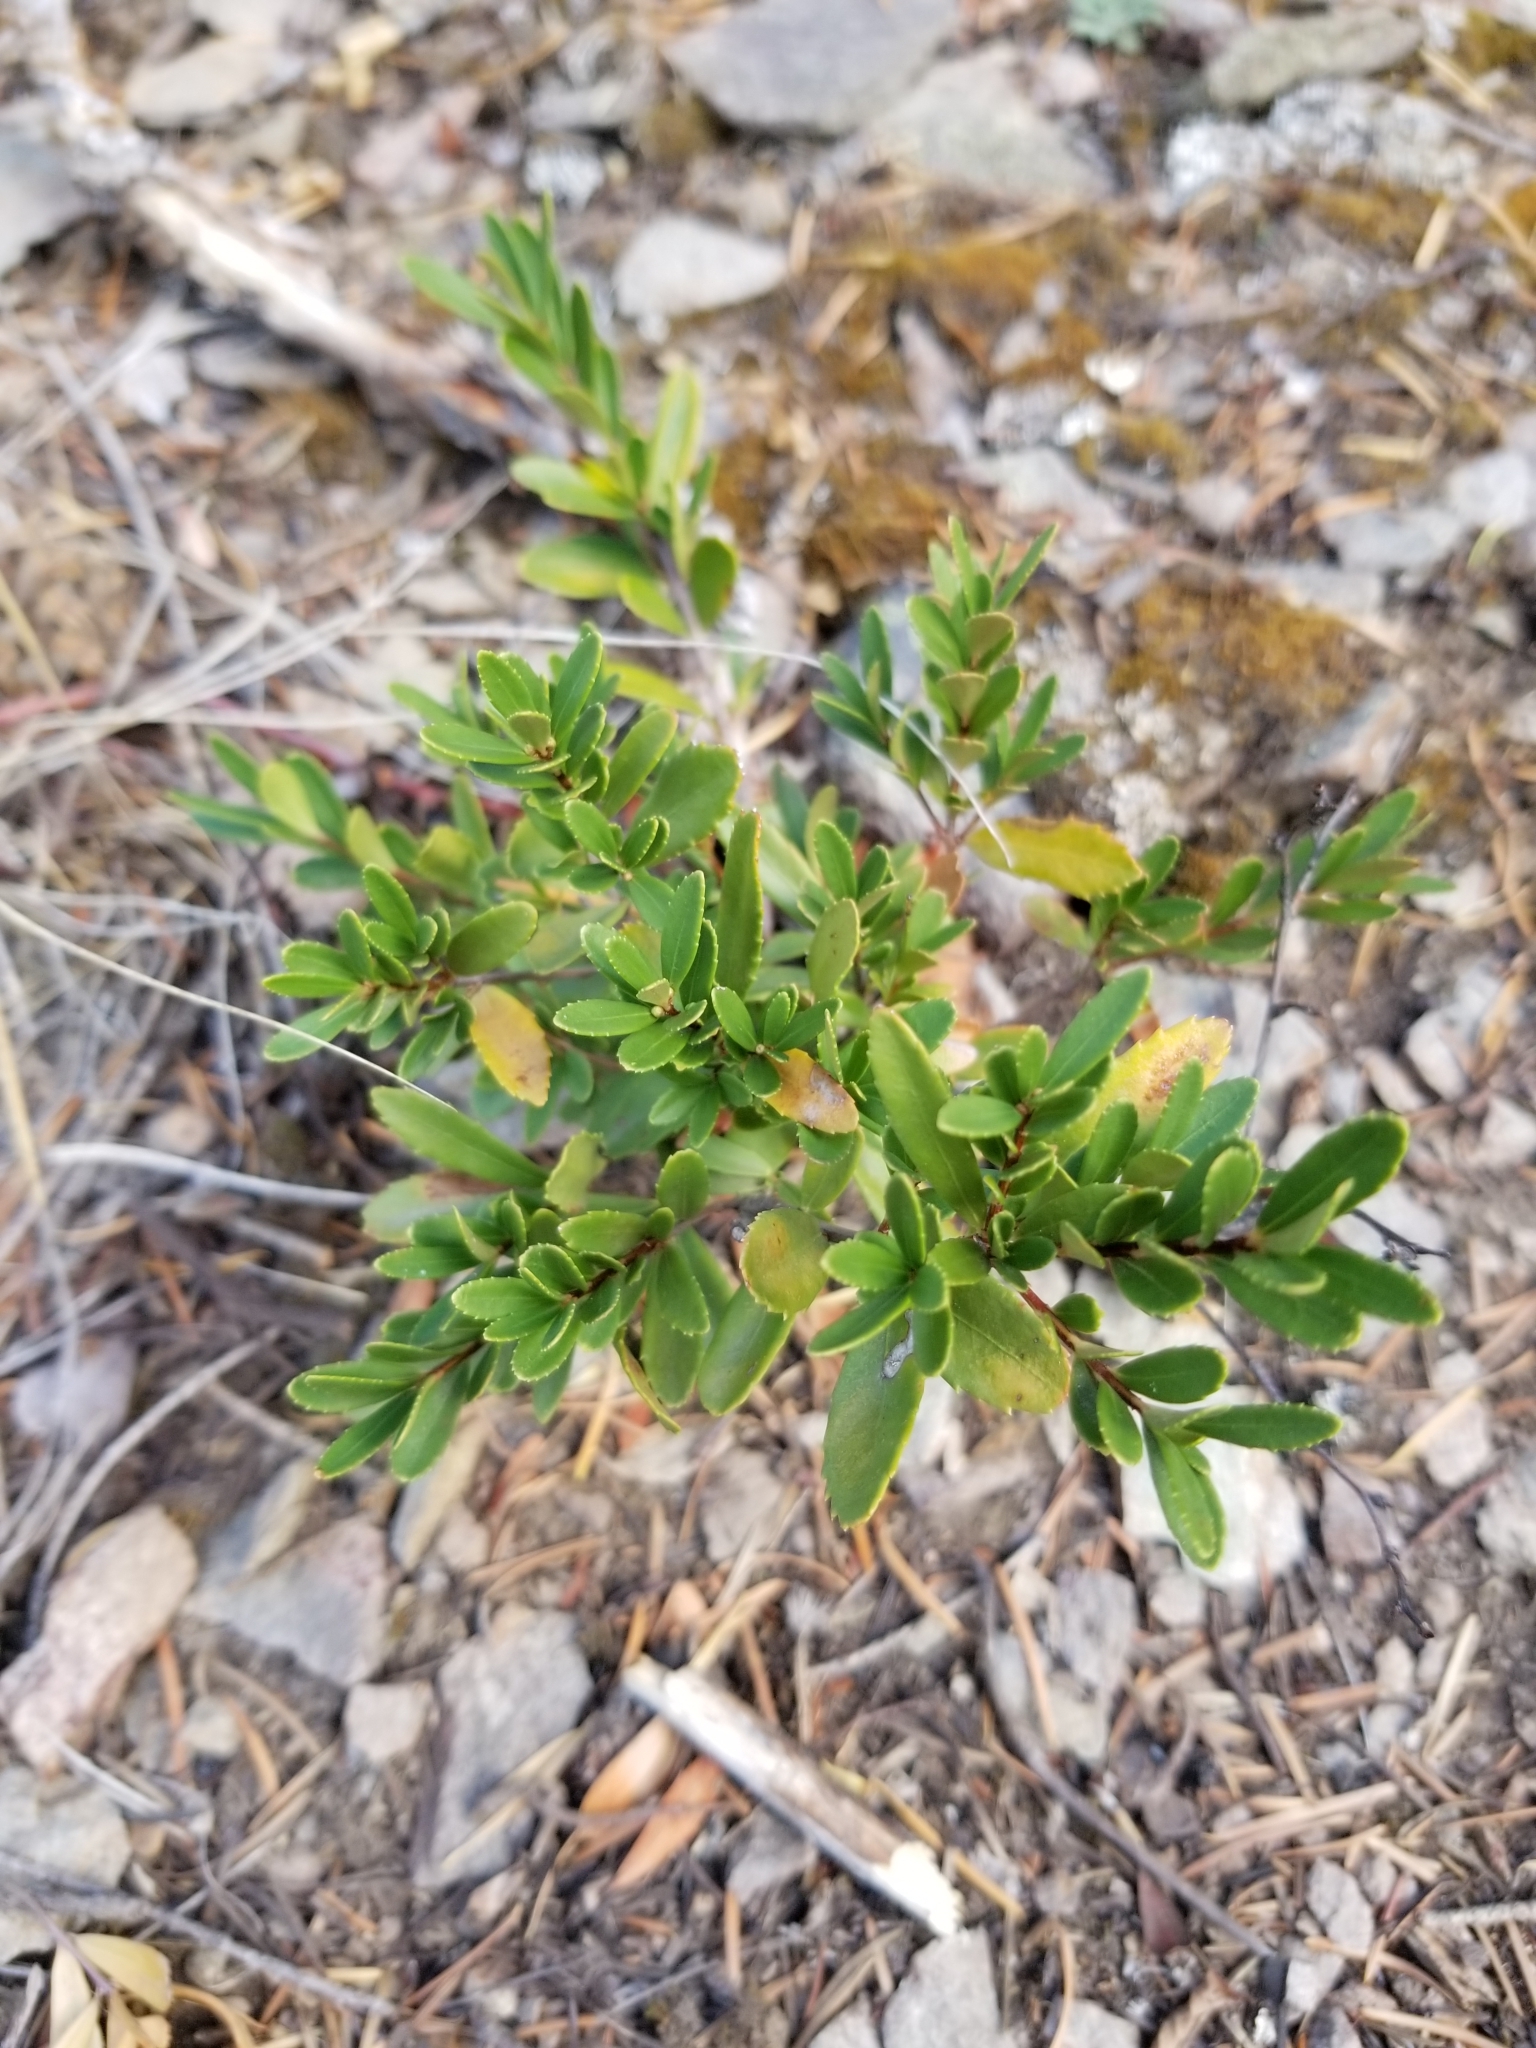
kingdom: Plantae
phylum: Tracheophyta
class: Magnoliopsida
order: Celastrales
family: Celastraceae
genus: Paxistima
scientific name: Paxistima myrsinites
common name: Mountain-lover
